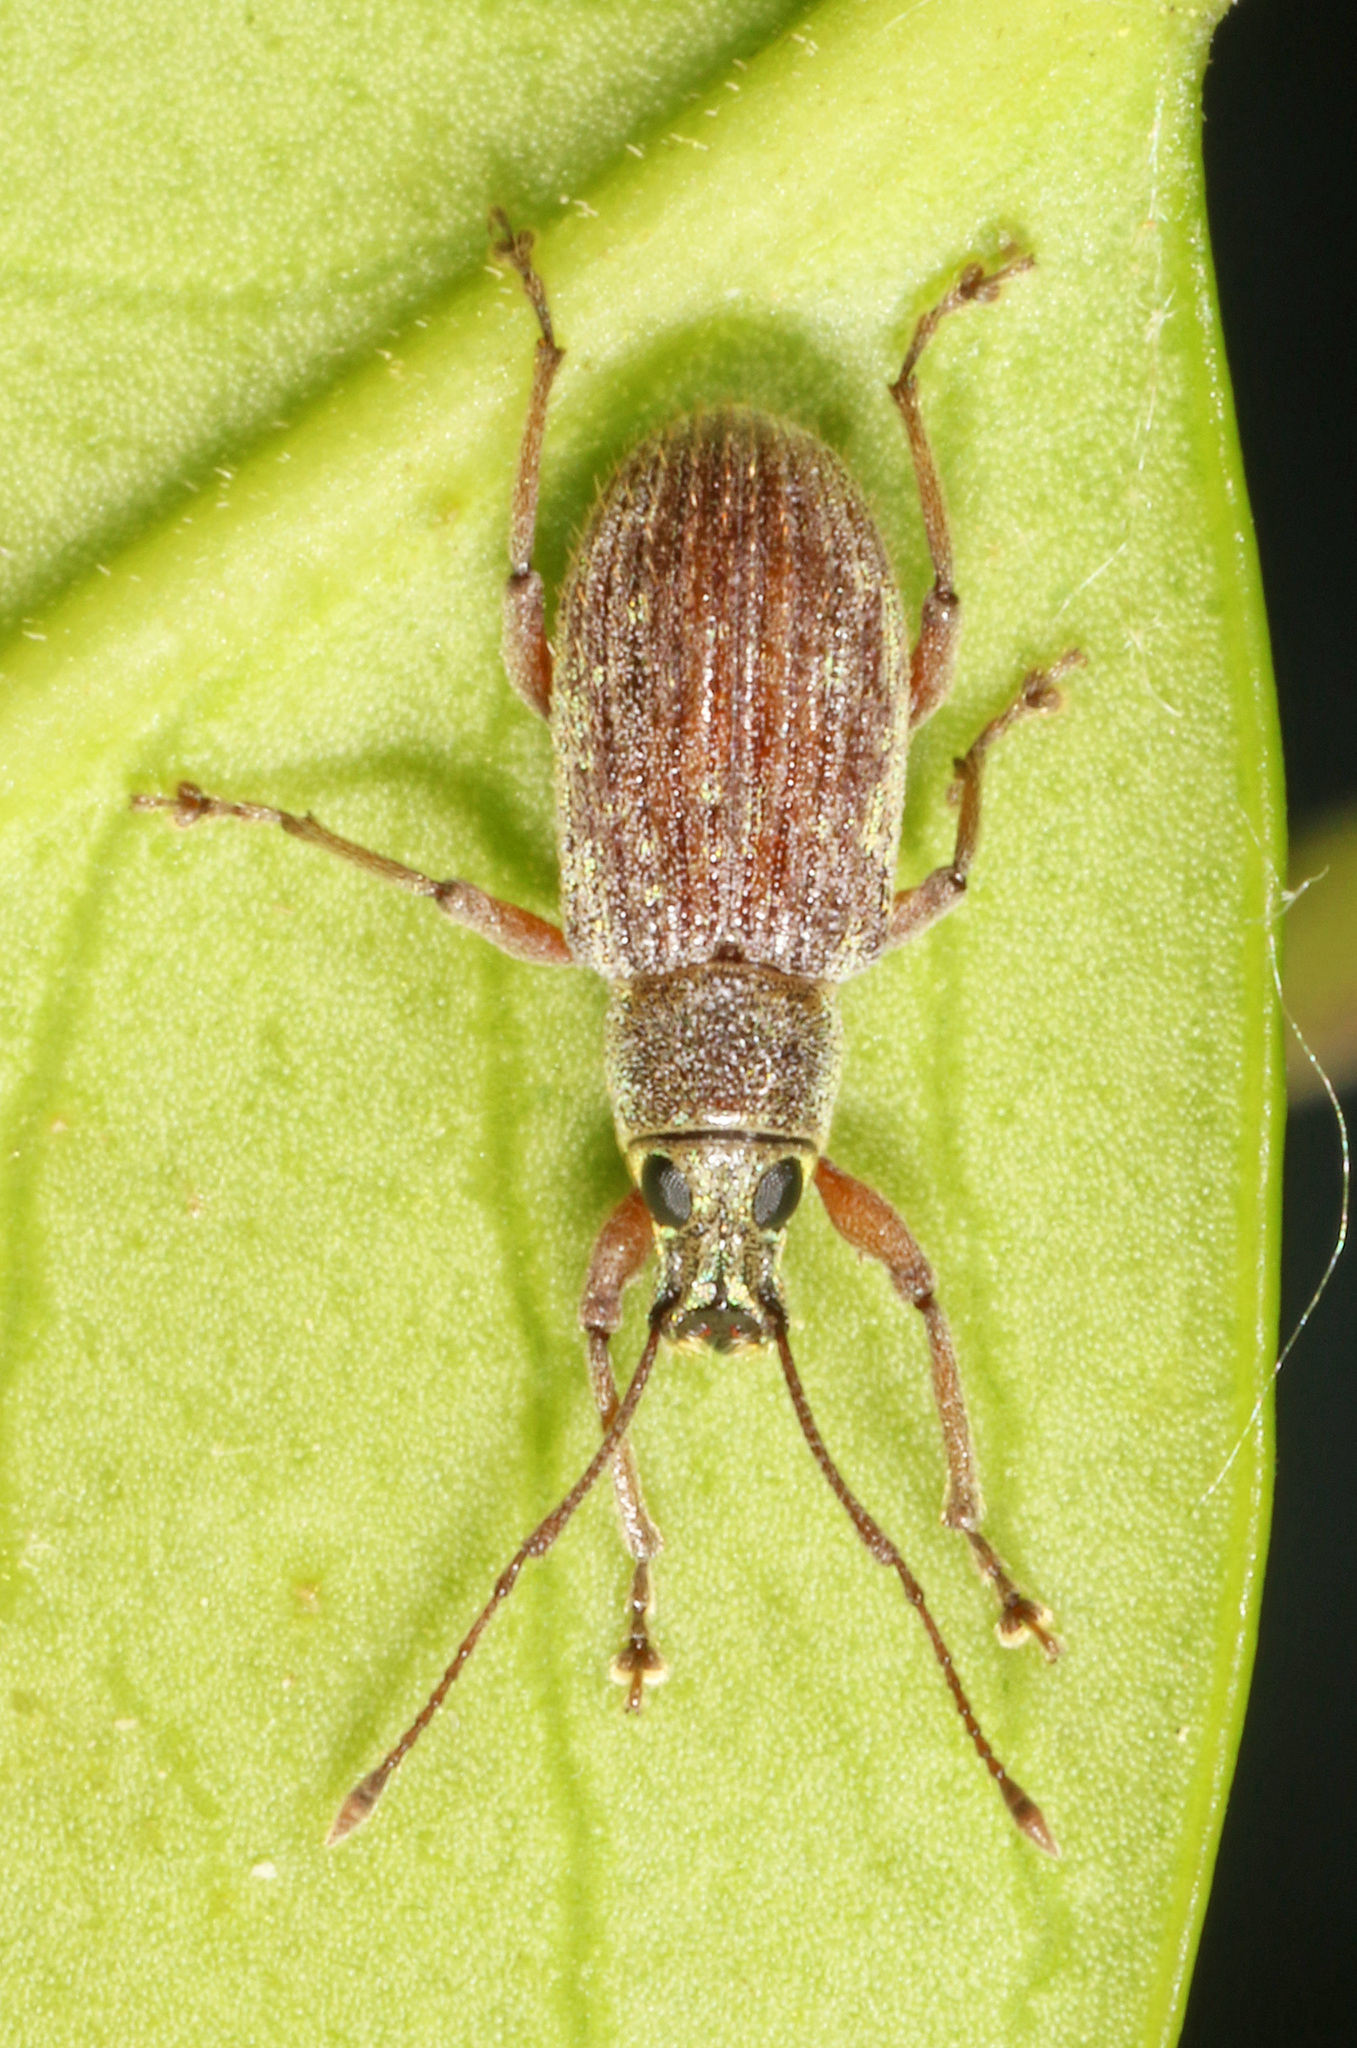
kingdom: Animalia
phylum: Arthropoda
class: Insecta
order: Coleoptera
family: Curculionidae
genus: Cyrtepistomus
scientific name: Cyrtepistomus castaneus
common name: Weevil
